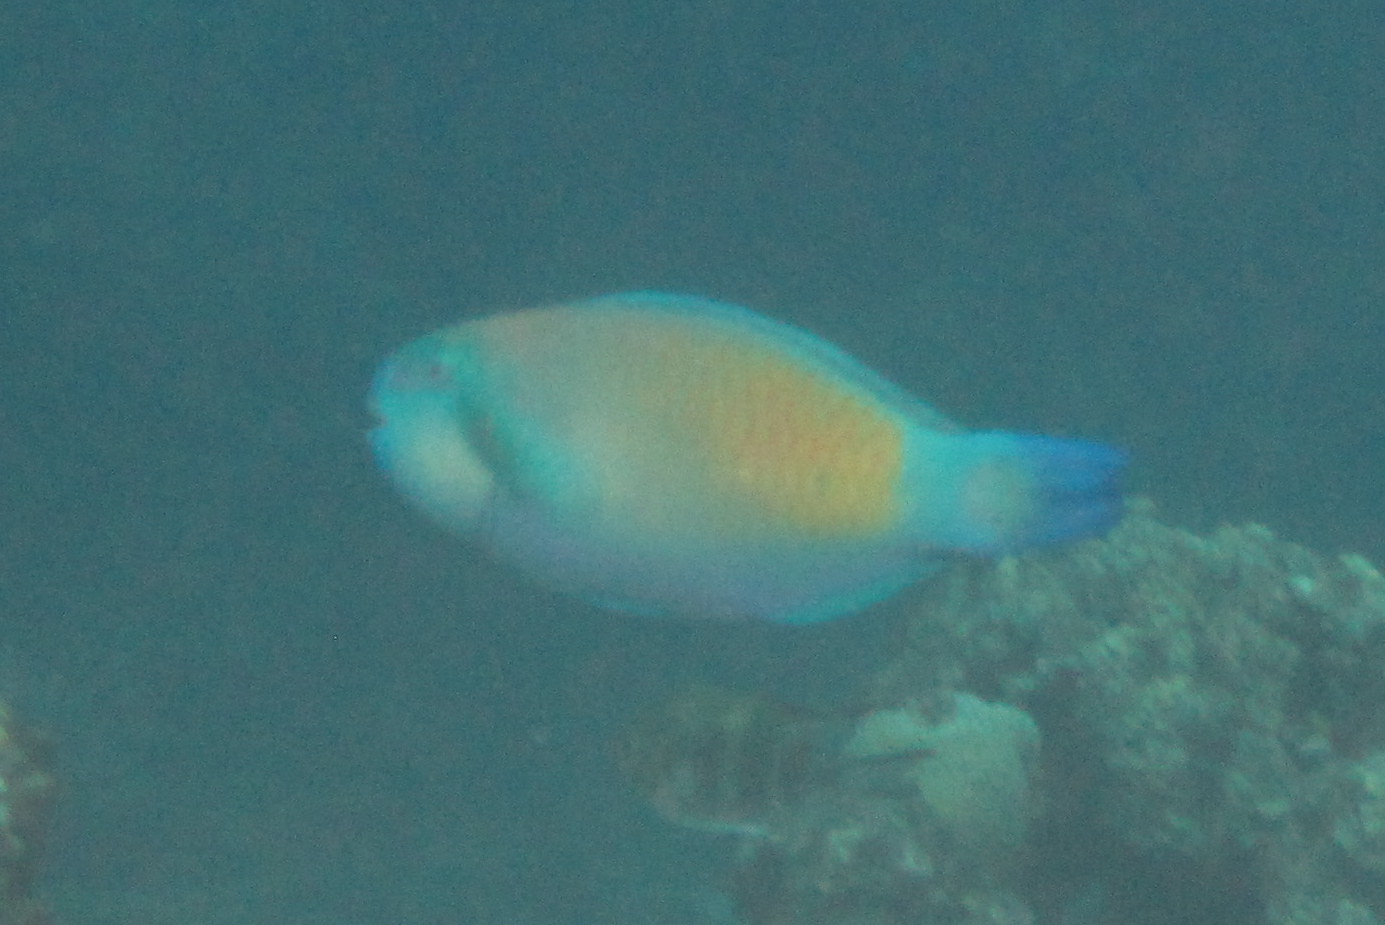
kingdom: Animalia
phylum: Chordata
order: Perciformes
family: Scaridae
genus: Chlorurus
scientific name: Chlorurus spilurus
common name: Bullethead parrotfish
